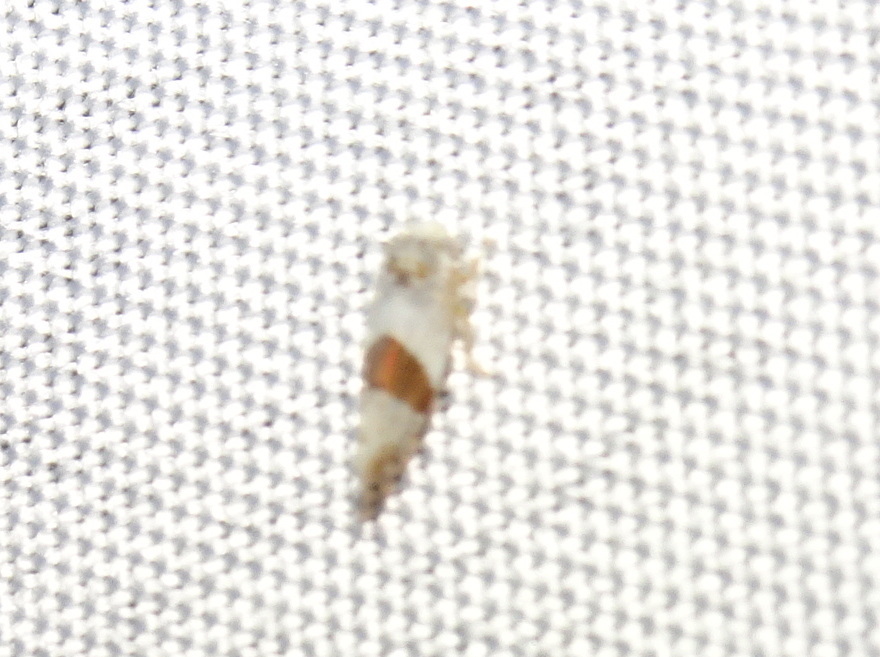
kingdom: Animalia
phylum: Arthropoda
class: Insecta
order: Hemiptera
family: Cicadellidae
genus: Norvellina
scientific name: Norvellina seminuda
